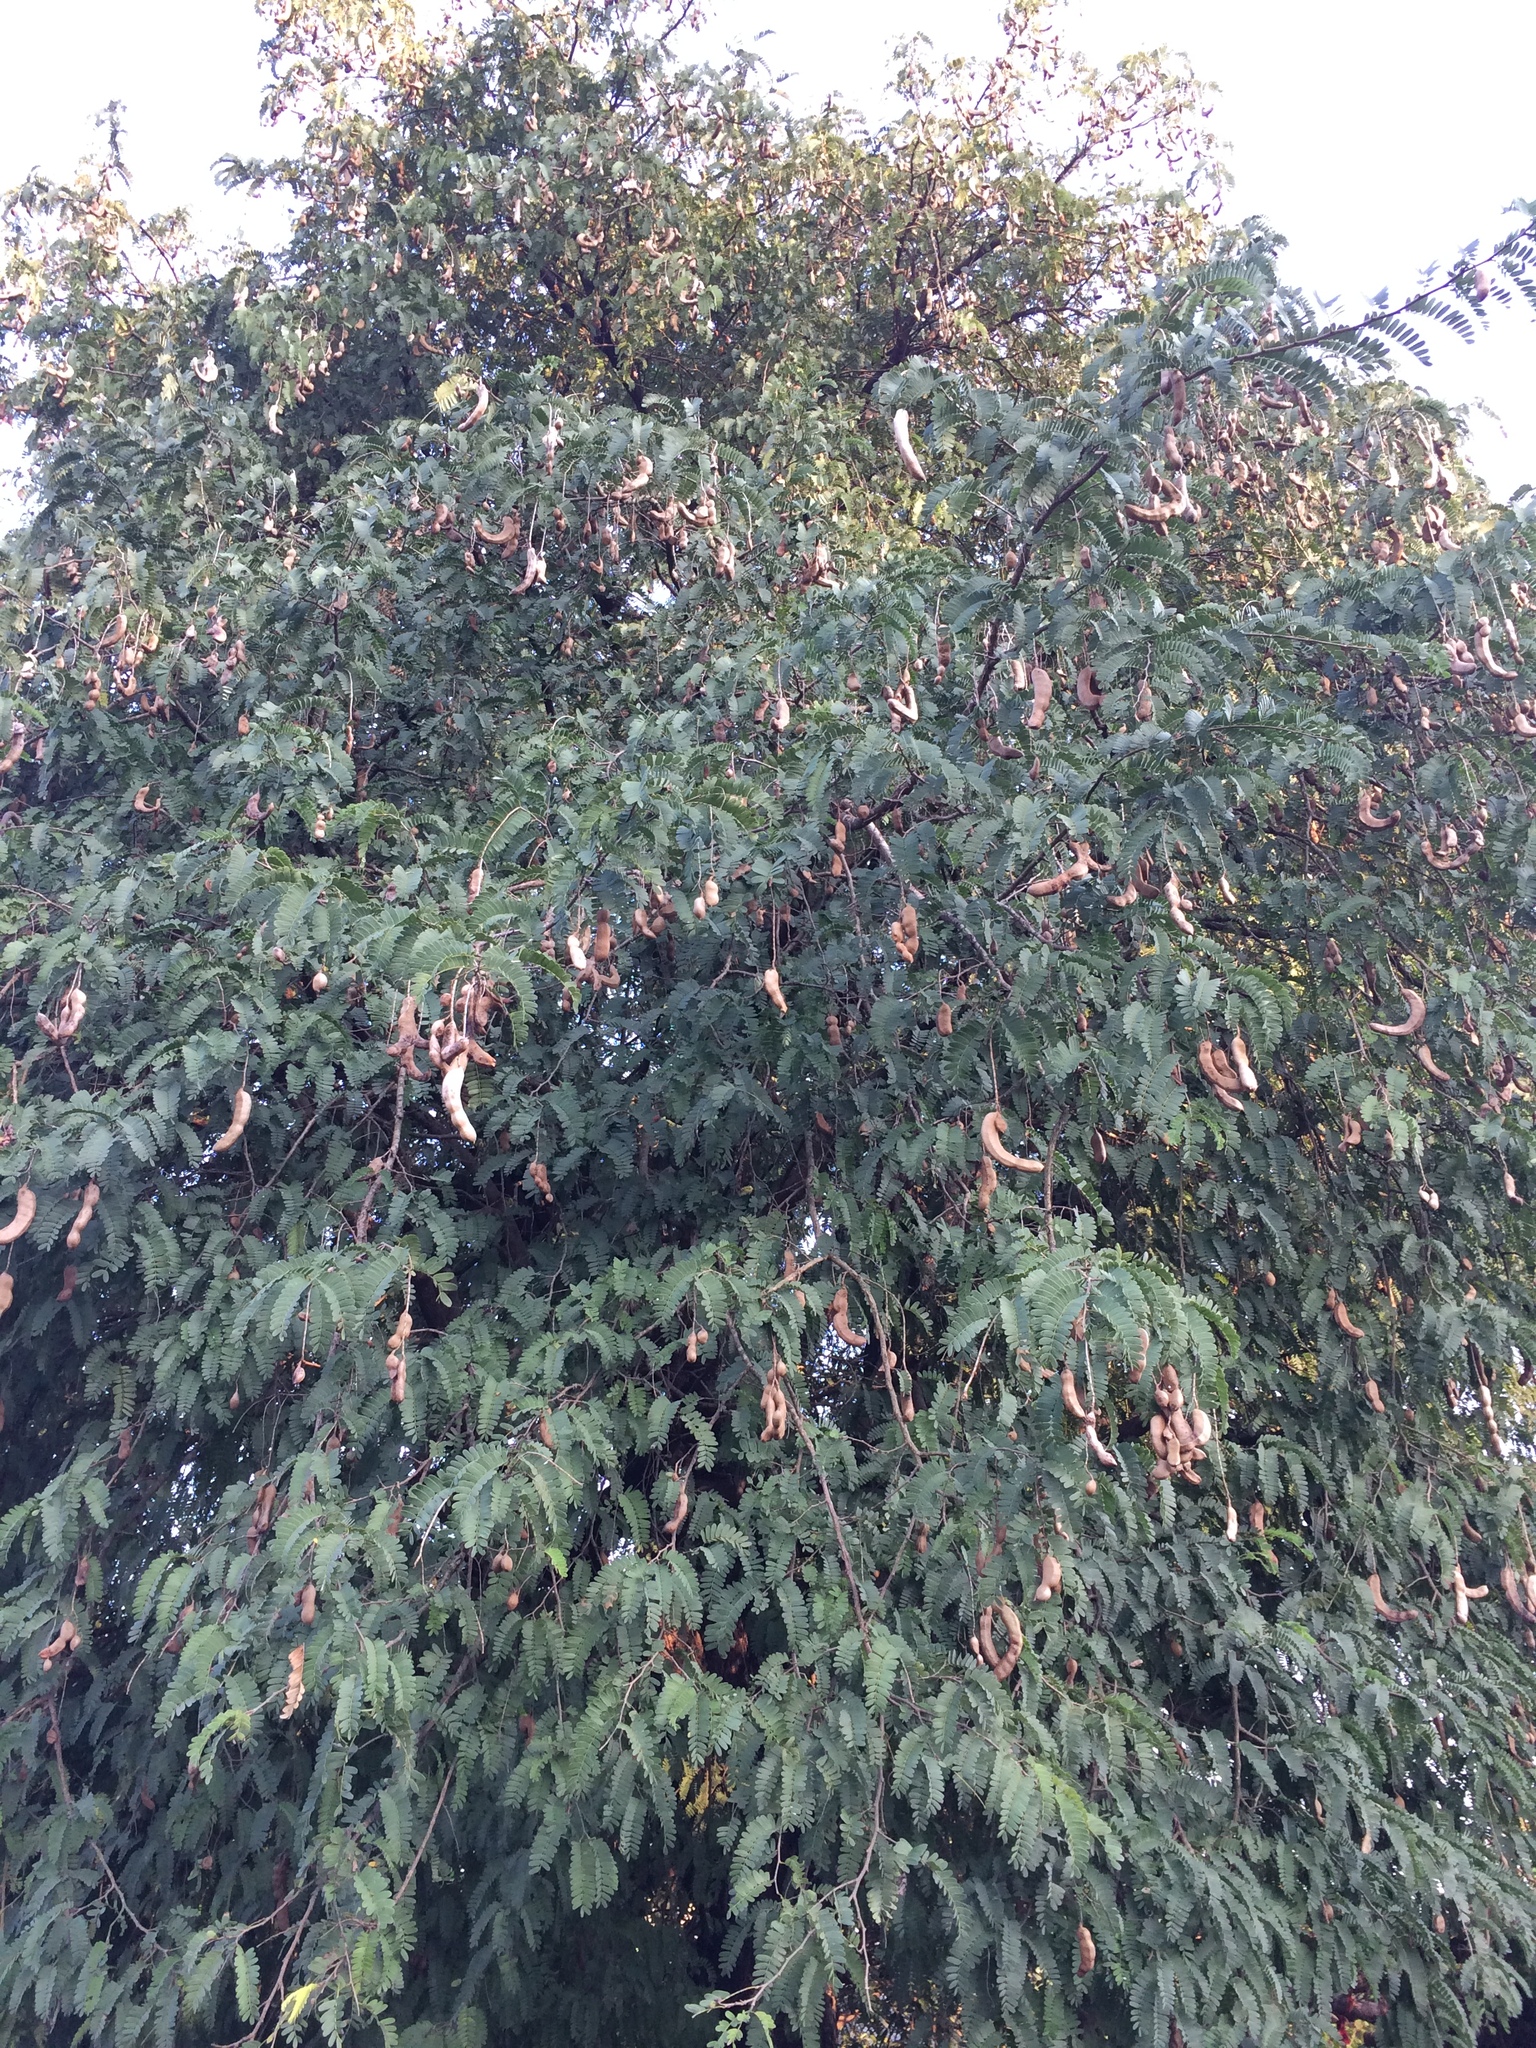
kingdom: Plantae
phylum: Tracheophyta
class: Magnoliopsida
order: Fabales
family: Fabaceae
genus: Tamarindus
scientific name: Tamarindus indica
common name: Tamarind
